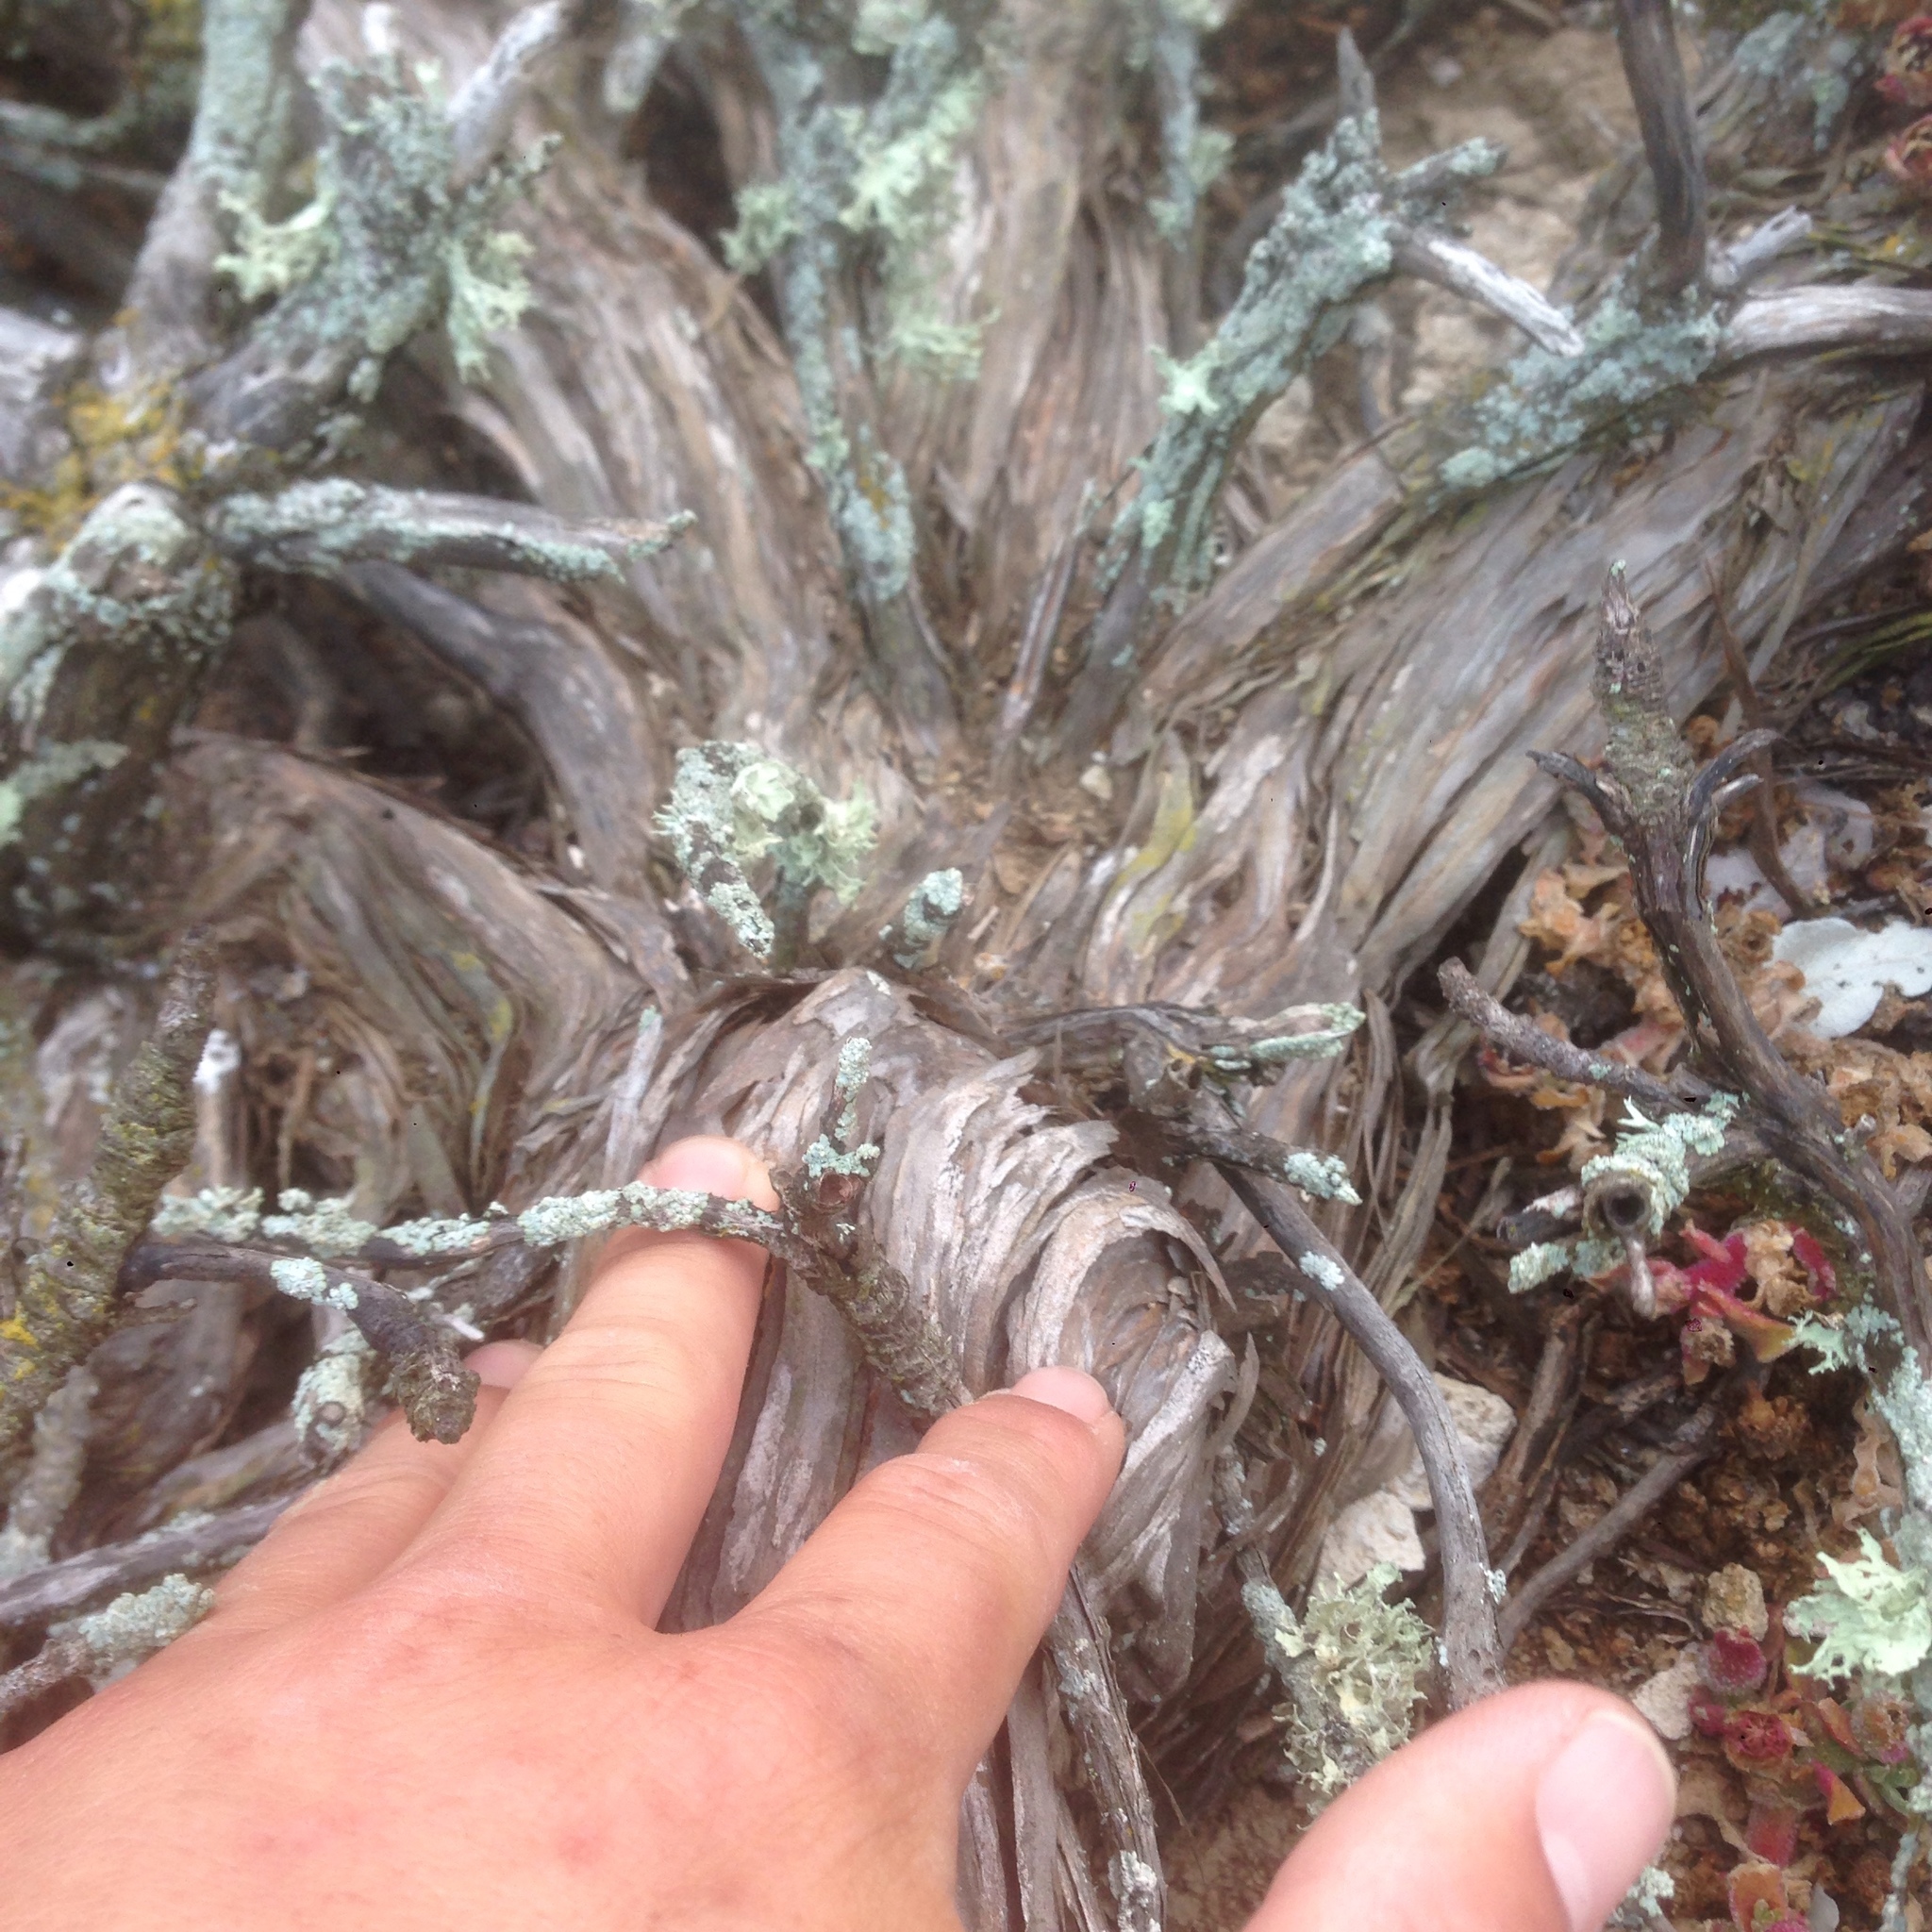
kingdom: Plantae
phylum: Tracheophyta
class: Magnoliopsida
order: Caryophyllales
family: Polygonaceae
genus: Eriogonum
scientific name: Eriogonum giganteum
